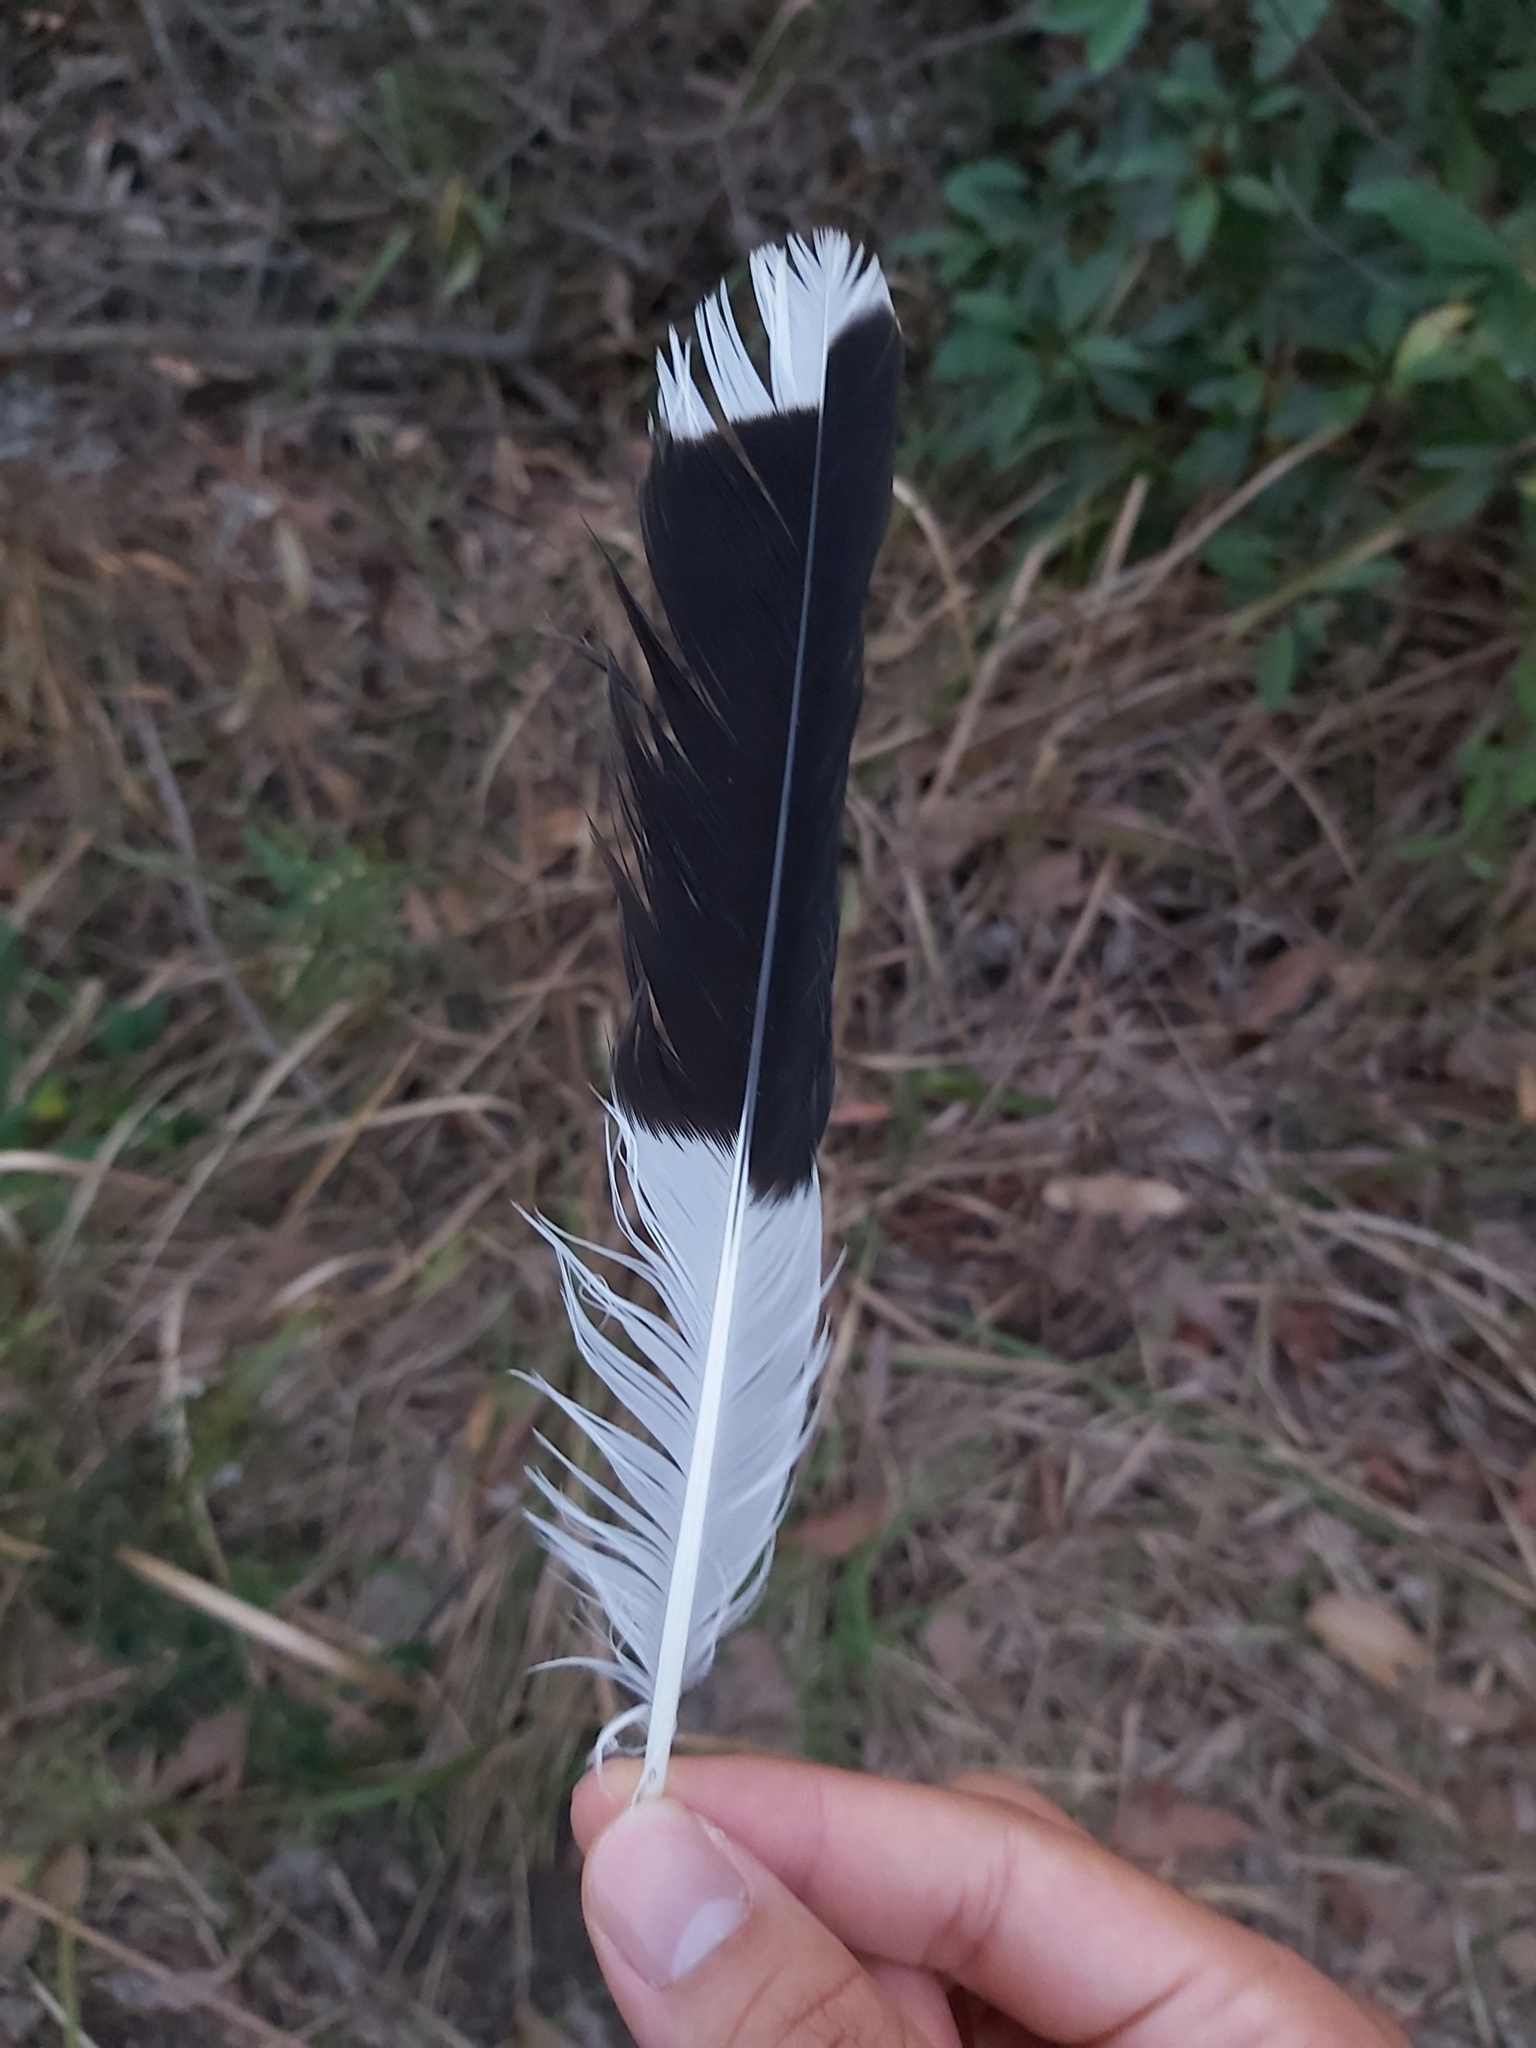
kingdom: Animalia
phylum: Chordata
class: Aves
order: Passeriformes
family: Cracticidae
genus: Strepera
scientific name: Strepera graculina
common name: Pied currawong
